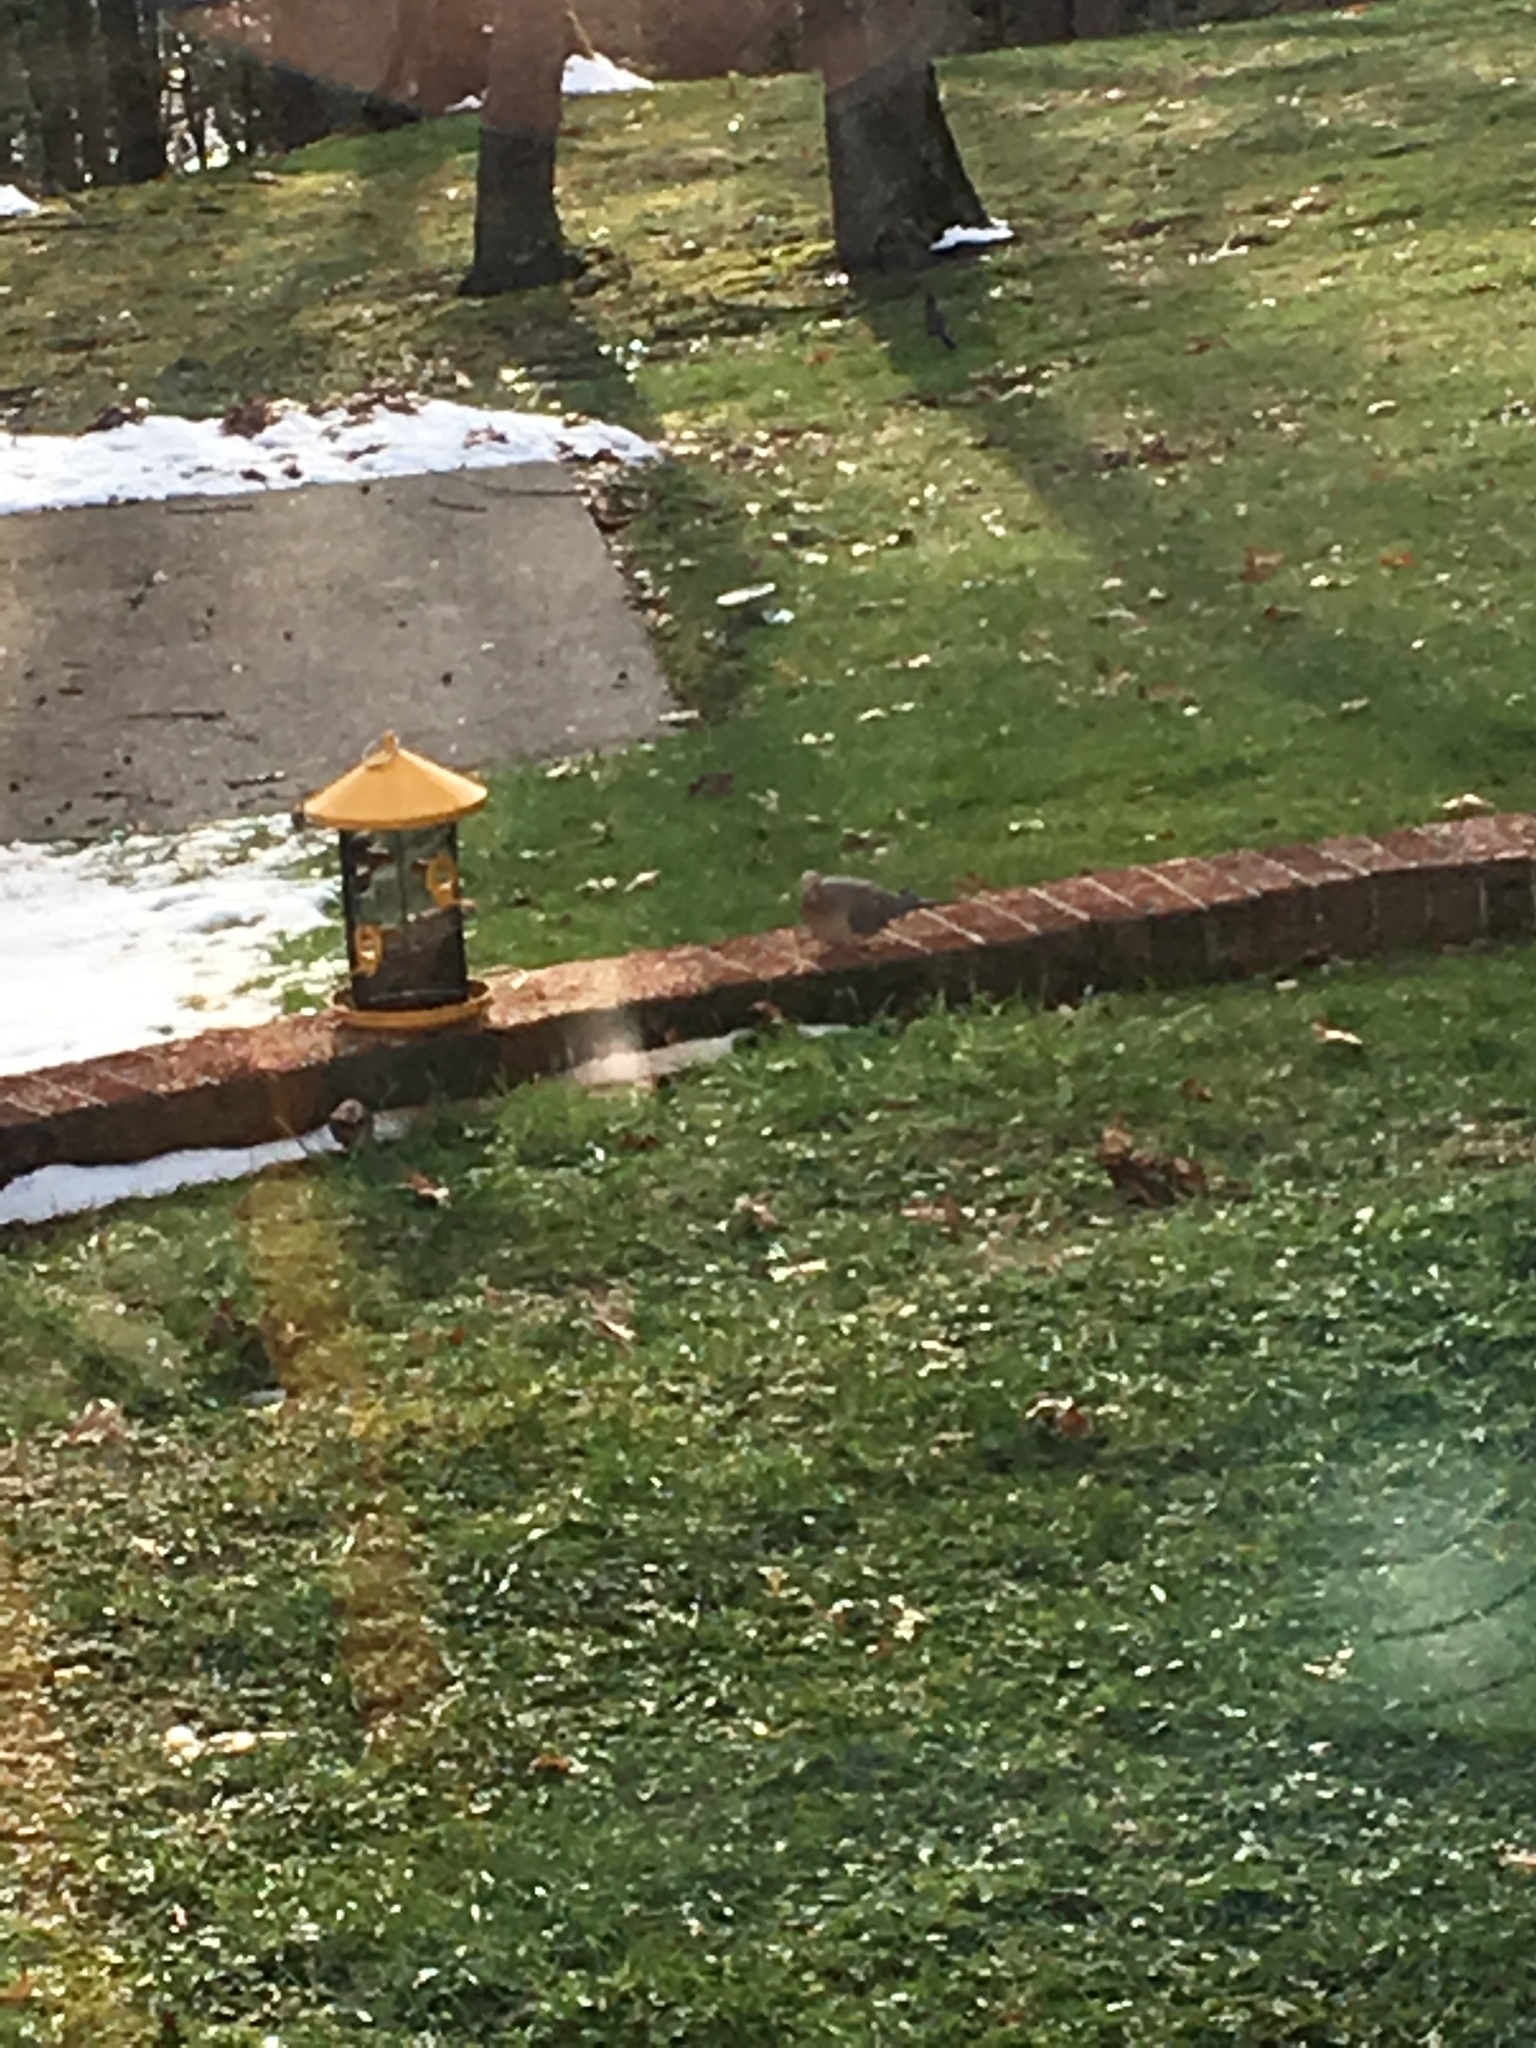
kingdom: Animalia
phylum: Chordata
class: Aves
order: Columbiformes
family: Columbidae
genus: Zenaida
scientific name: Zenaida macroura
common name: Mourning dove
